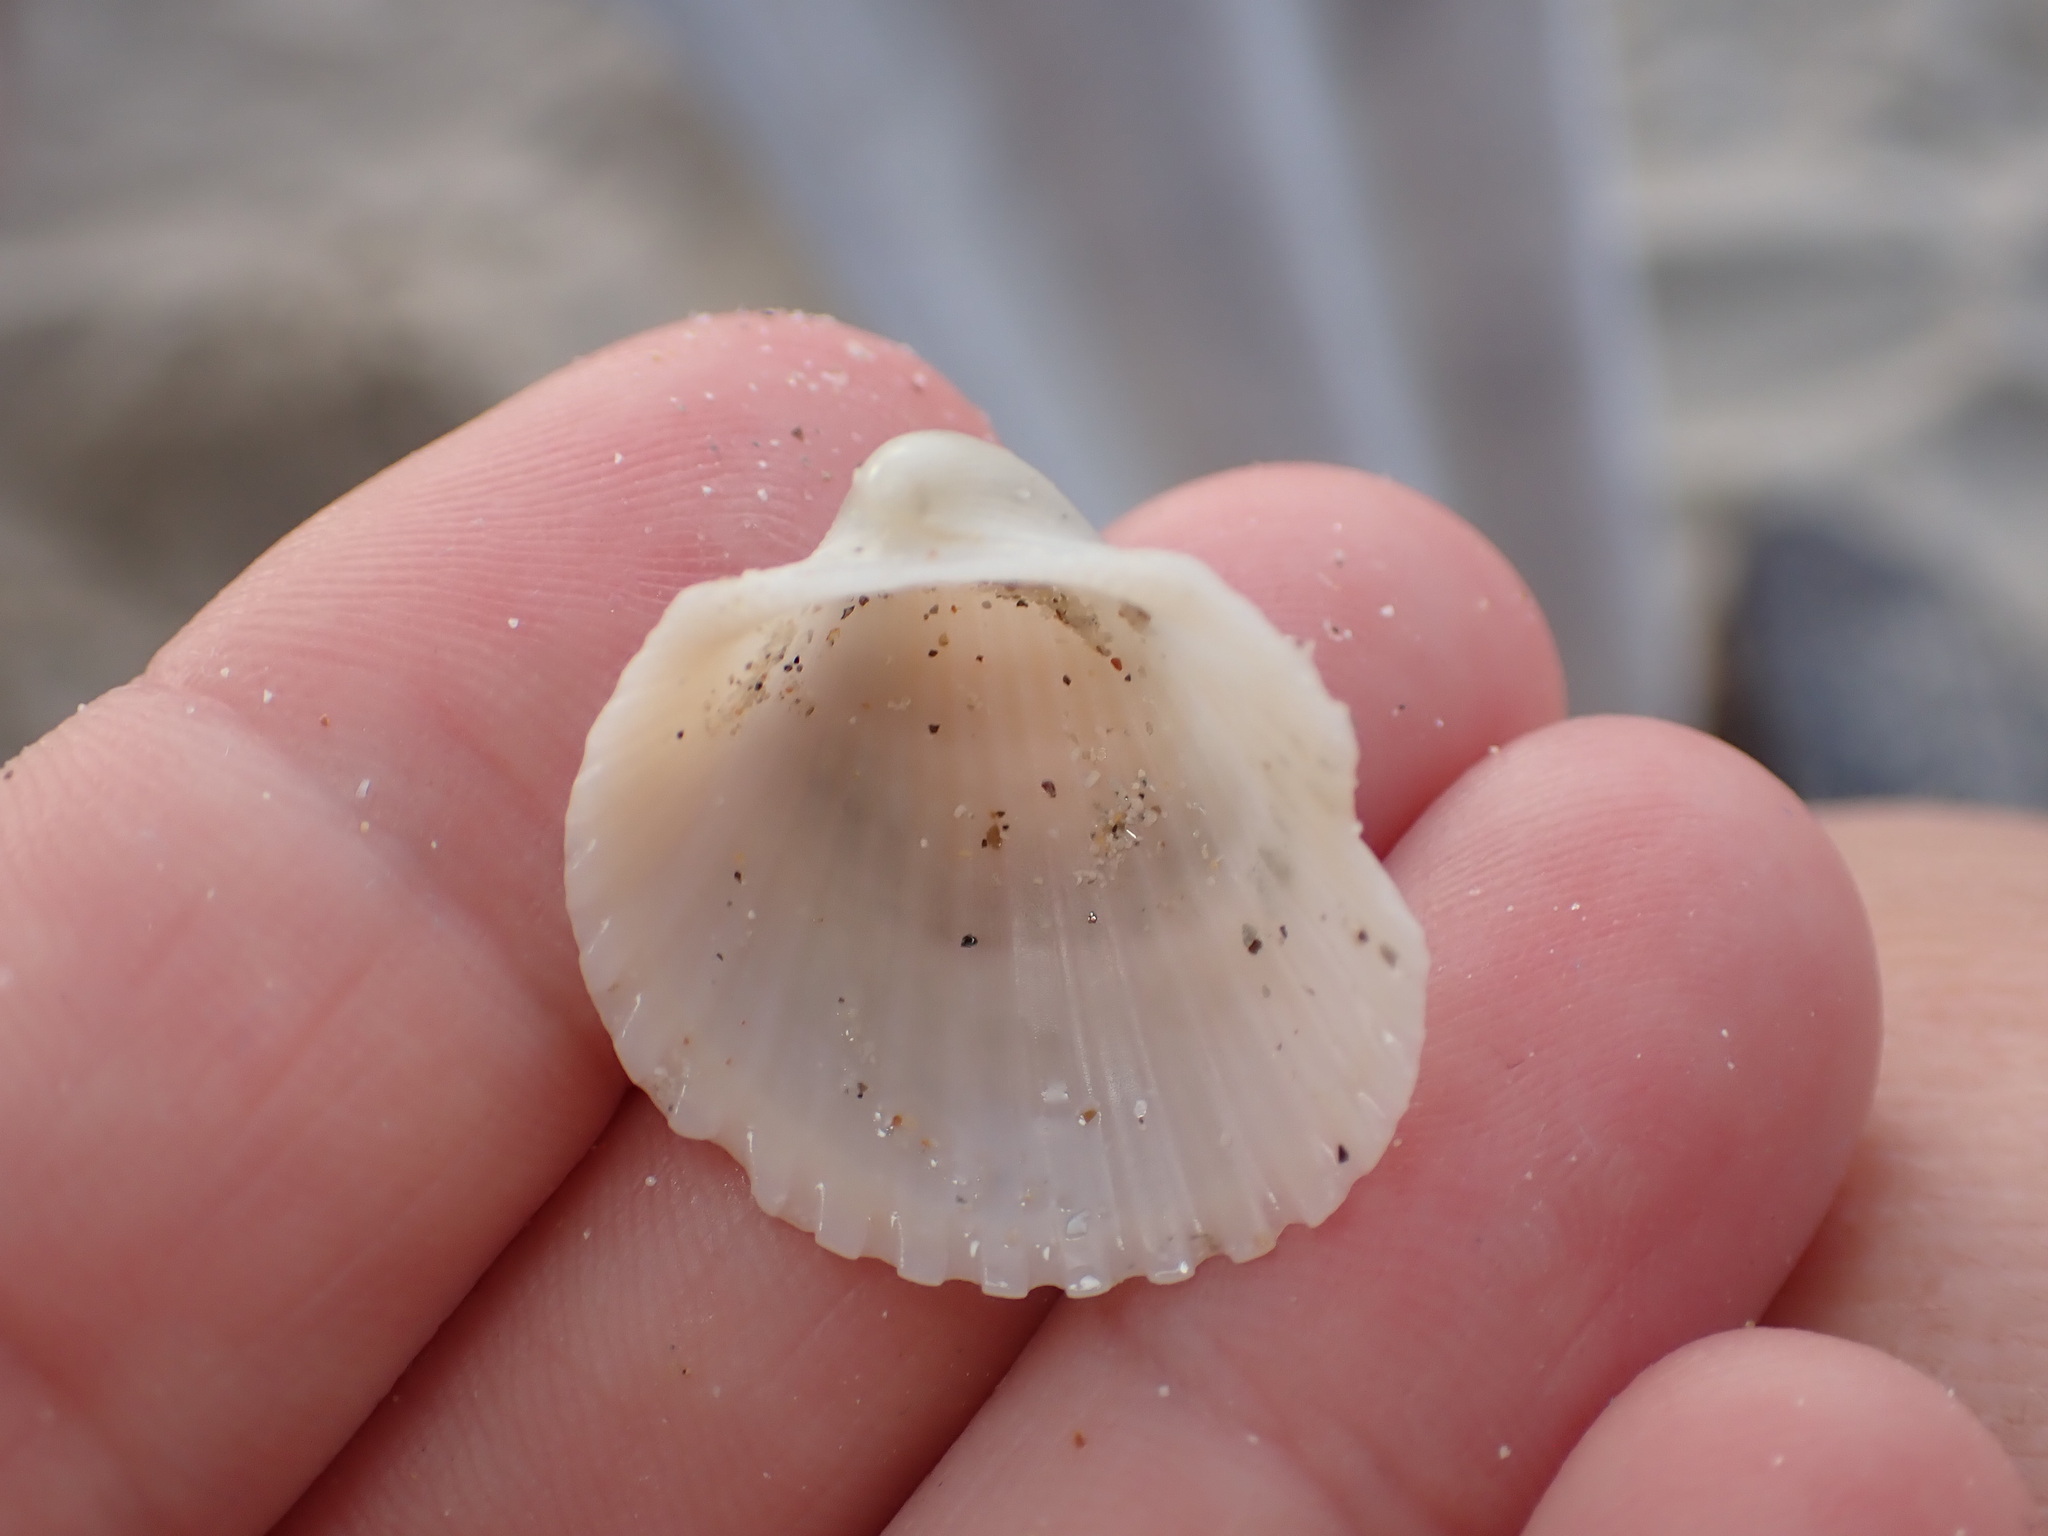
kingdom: Animalia
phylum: Mollusca
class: Bivalvia
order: Arcida
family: Arcidae
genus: Anadara
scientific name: Anadara pilula
